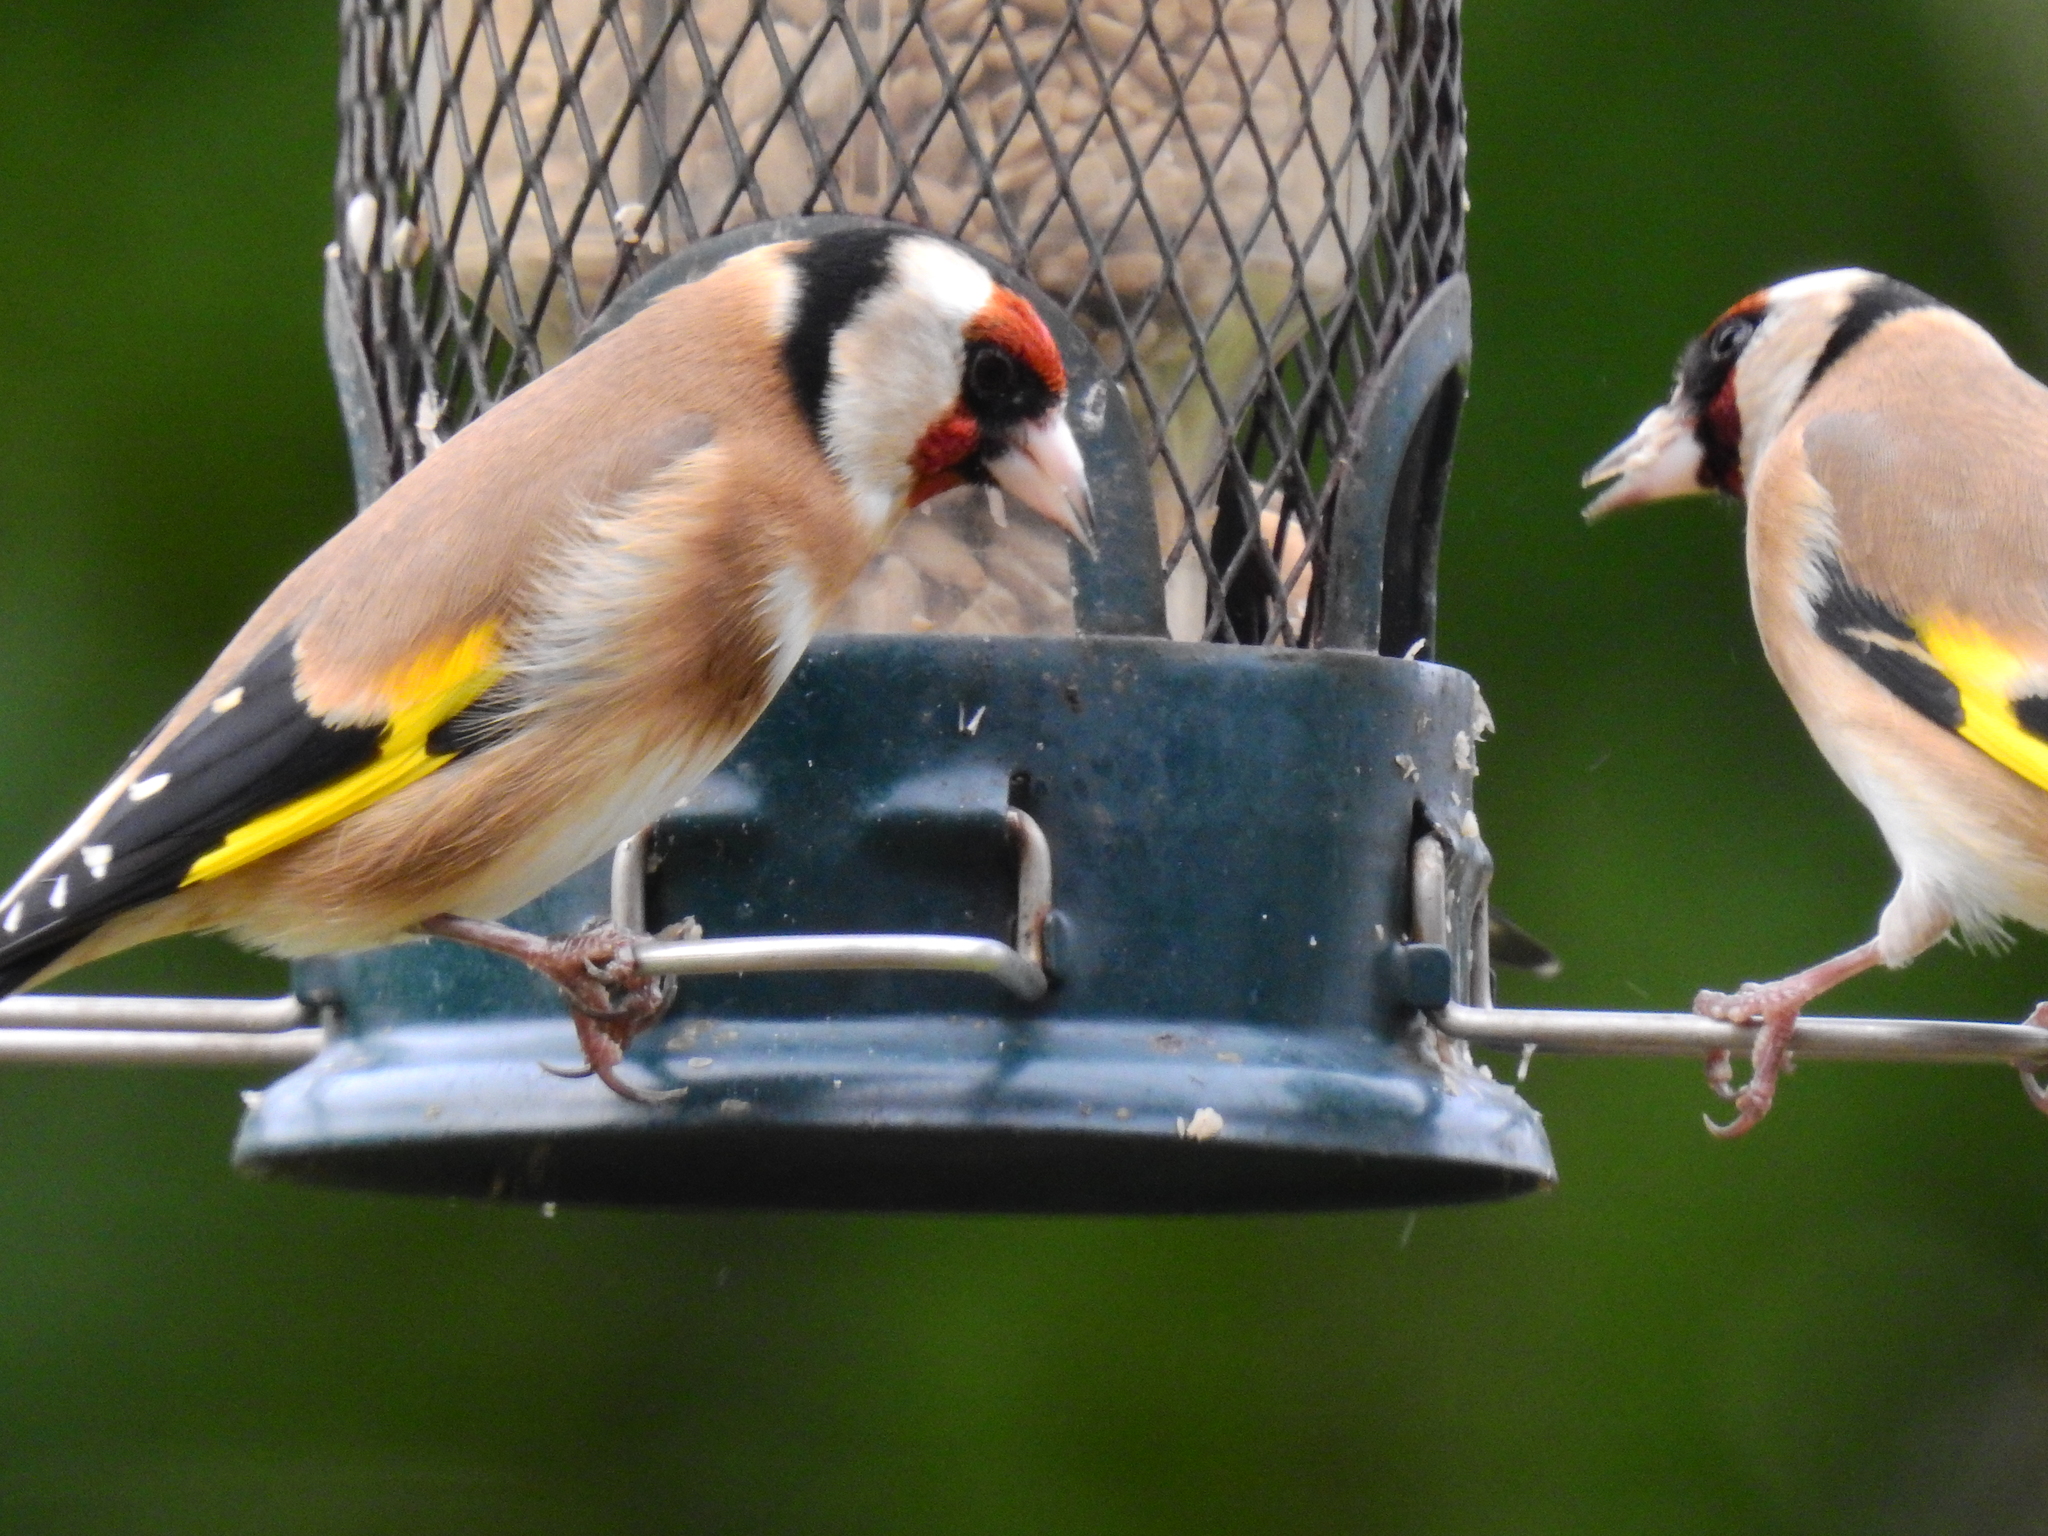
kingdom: Animalia
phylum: Chordata
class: Aves
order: Passeriformes
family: Fringillidae
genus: Carduelis
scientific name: Carduelis carduelis
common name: European goldfinch
